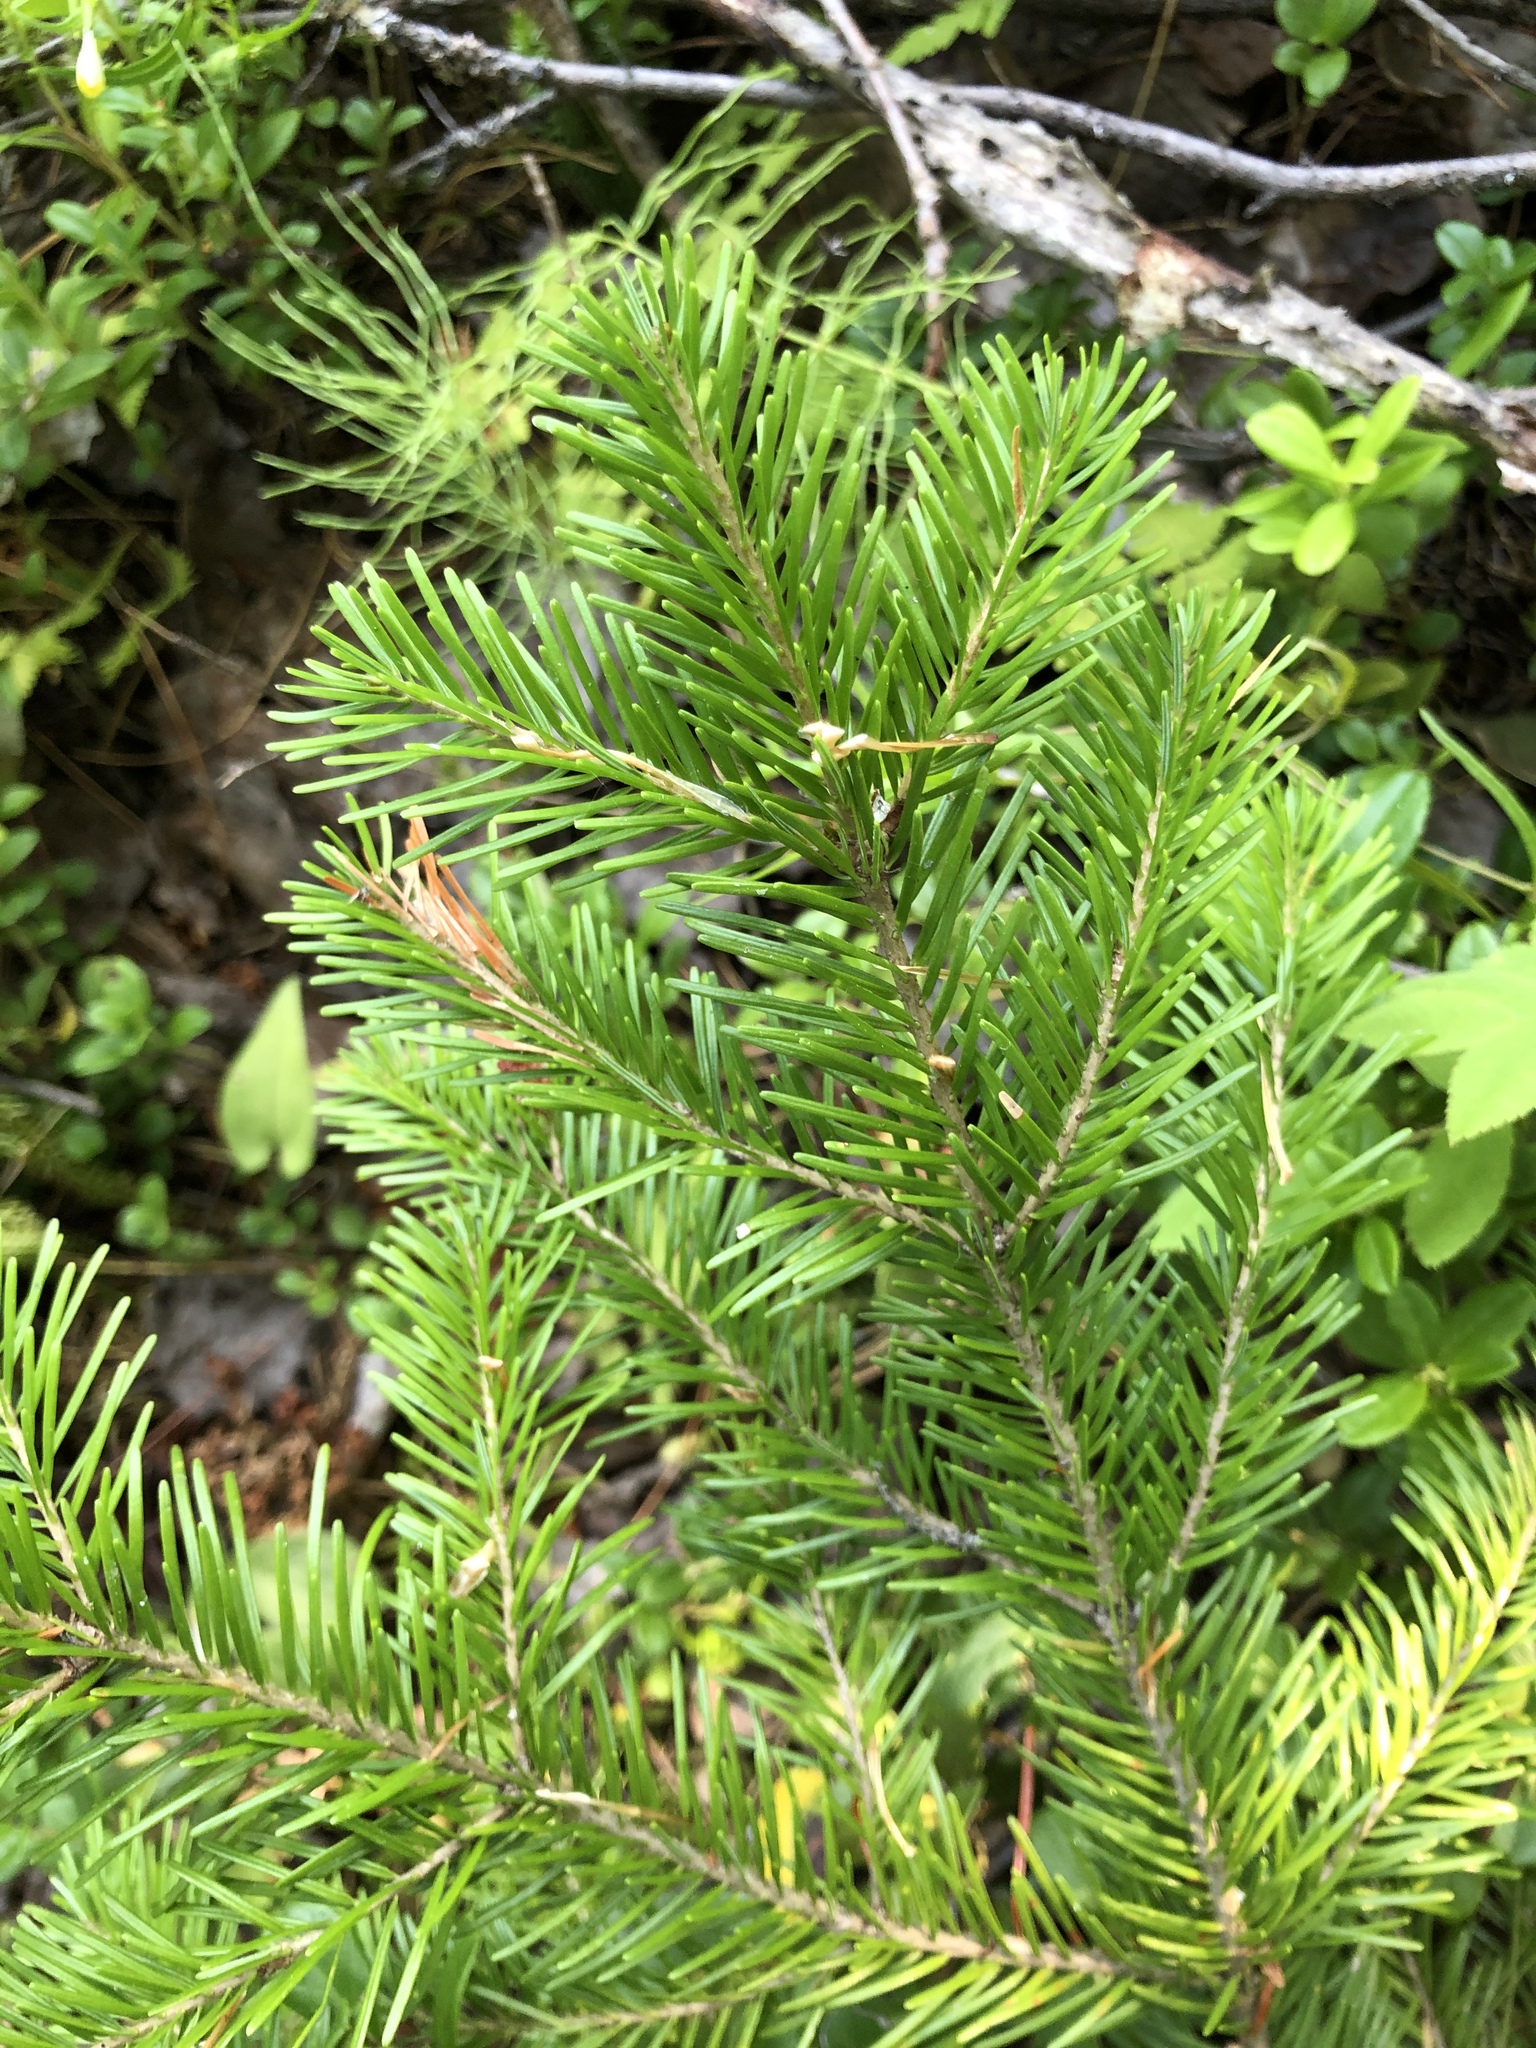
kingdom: Plantae
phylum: Tracheophyta
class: Pinopsida
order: Pinales
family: Pinaceae
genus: Abies
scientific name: Abies sibirica
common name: Siberian fir
